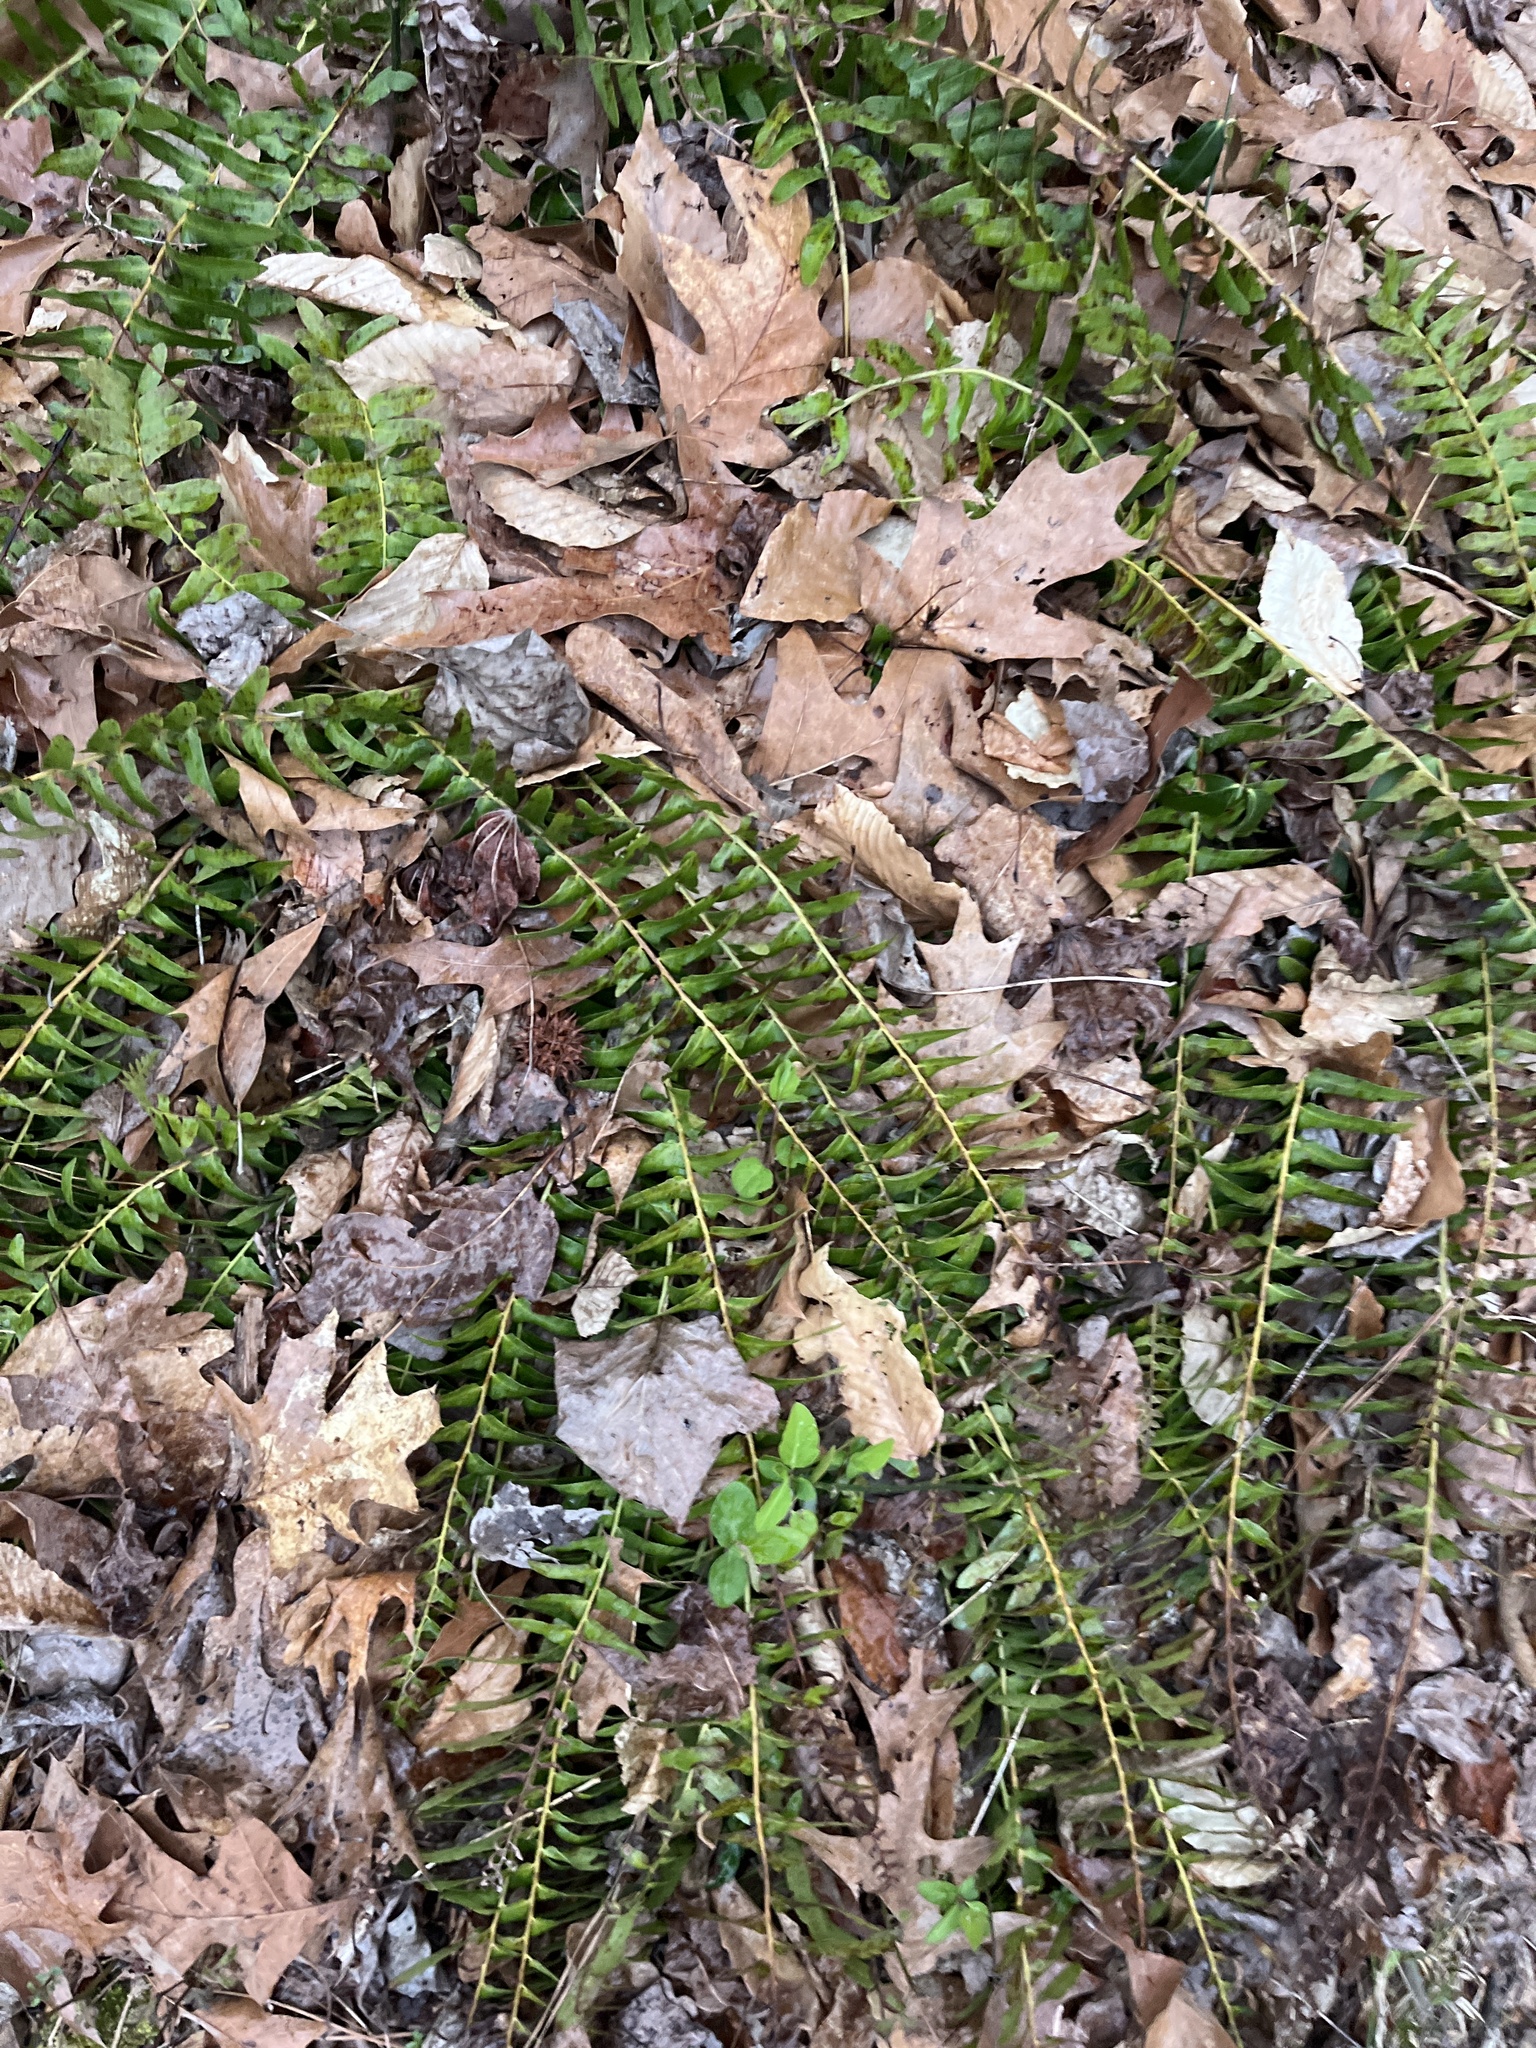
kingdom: Plantae
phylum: Tracheophyta
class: Polypodiopsida
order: Polypodiales
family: Dryopteridaceae
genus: Polystichum
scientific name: Polystichum acrostichoides
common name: Christmas fern
